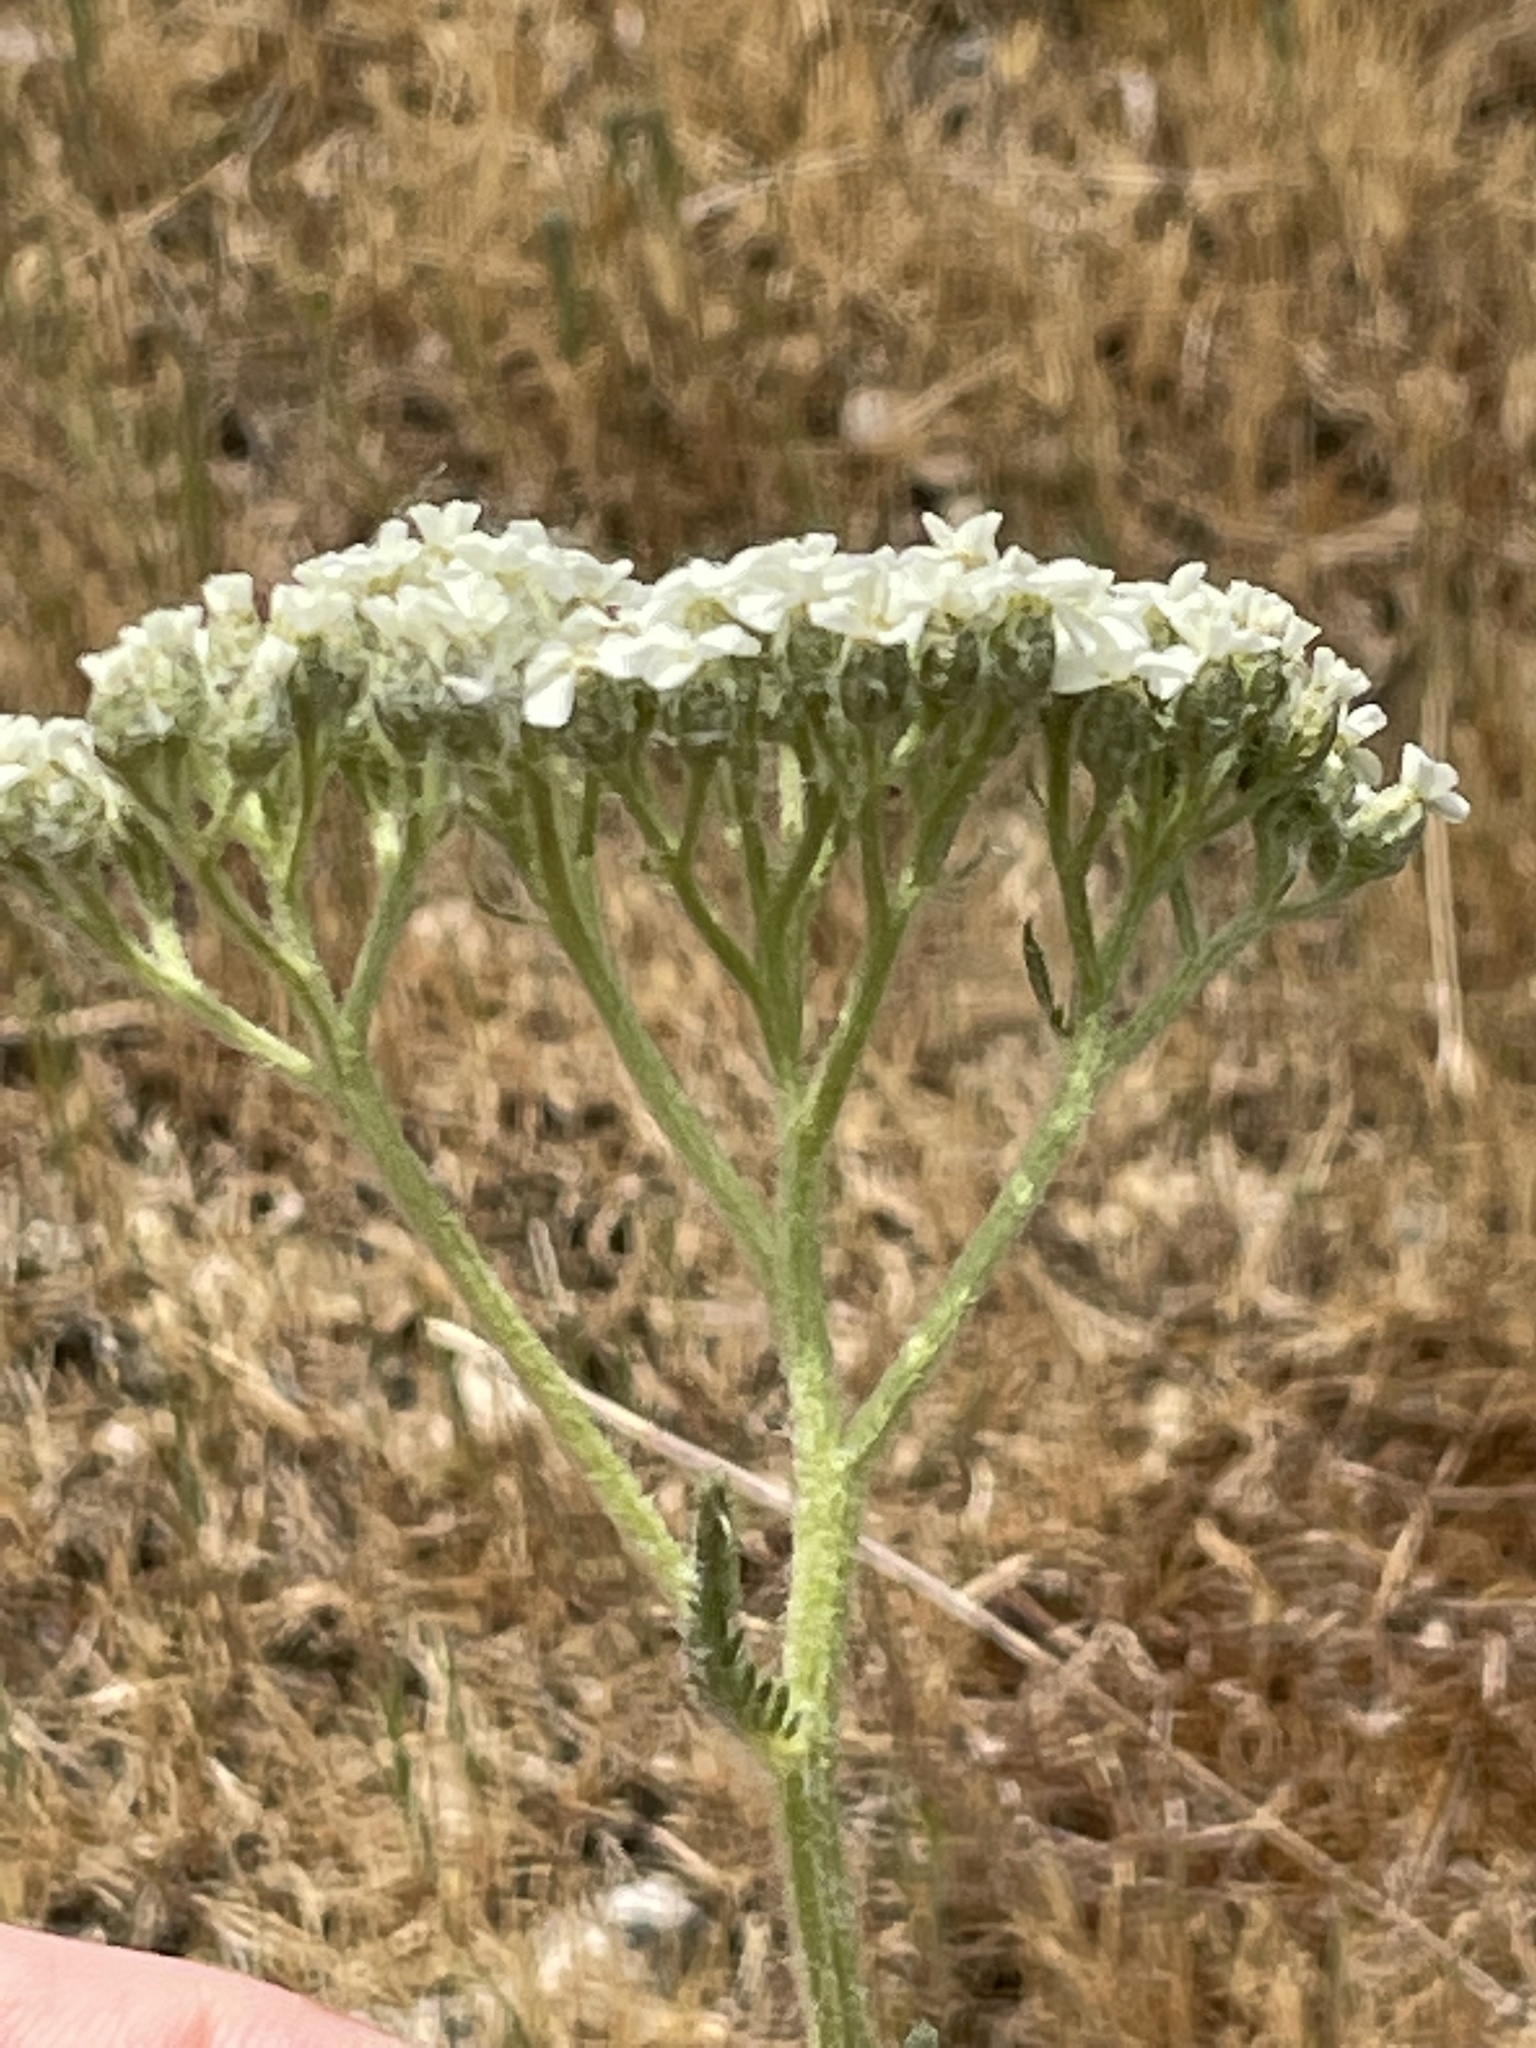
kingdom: Plantae
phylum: Tracheophyta
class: Magnoliopsida
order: Asterales
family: Asteraceae
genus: Achillea
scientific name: Achillea millefolium
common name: Yarrow
